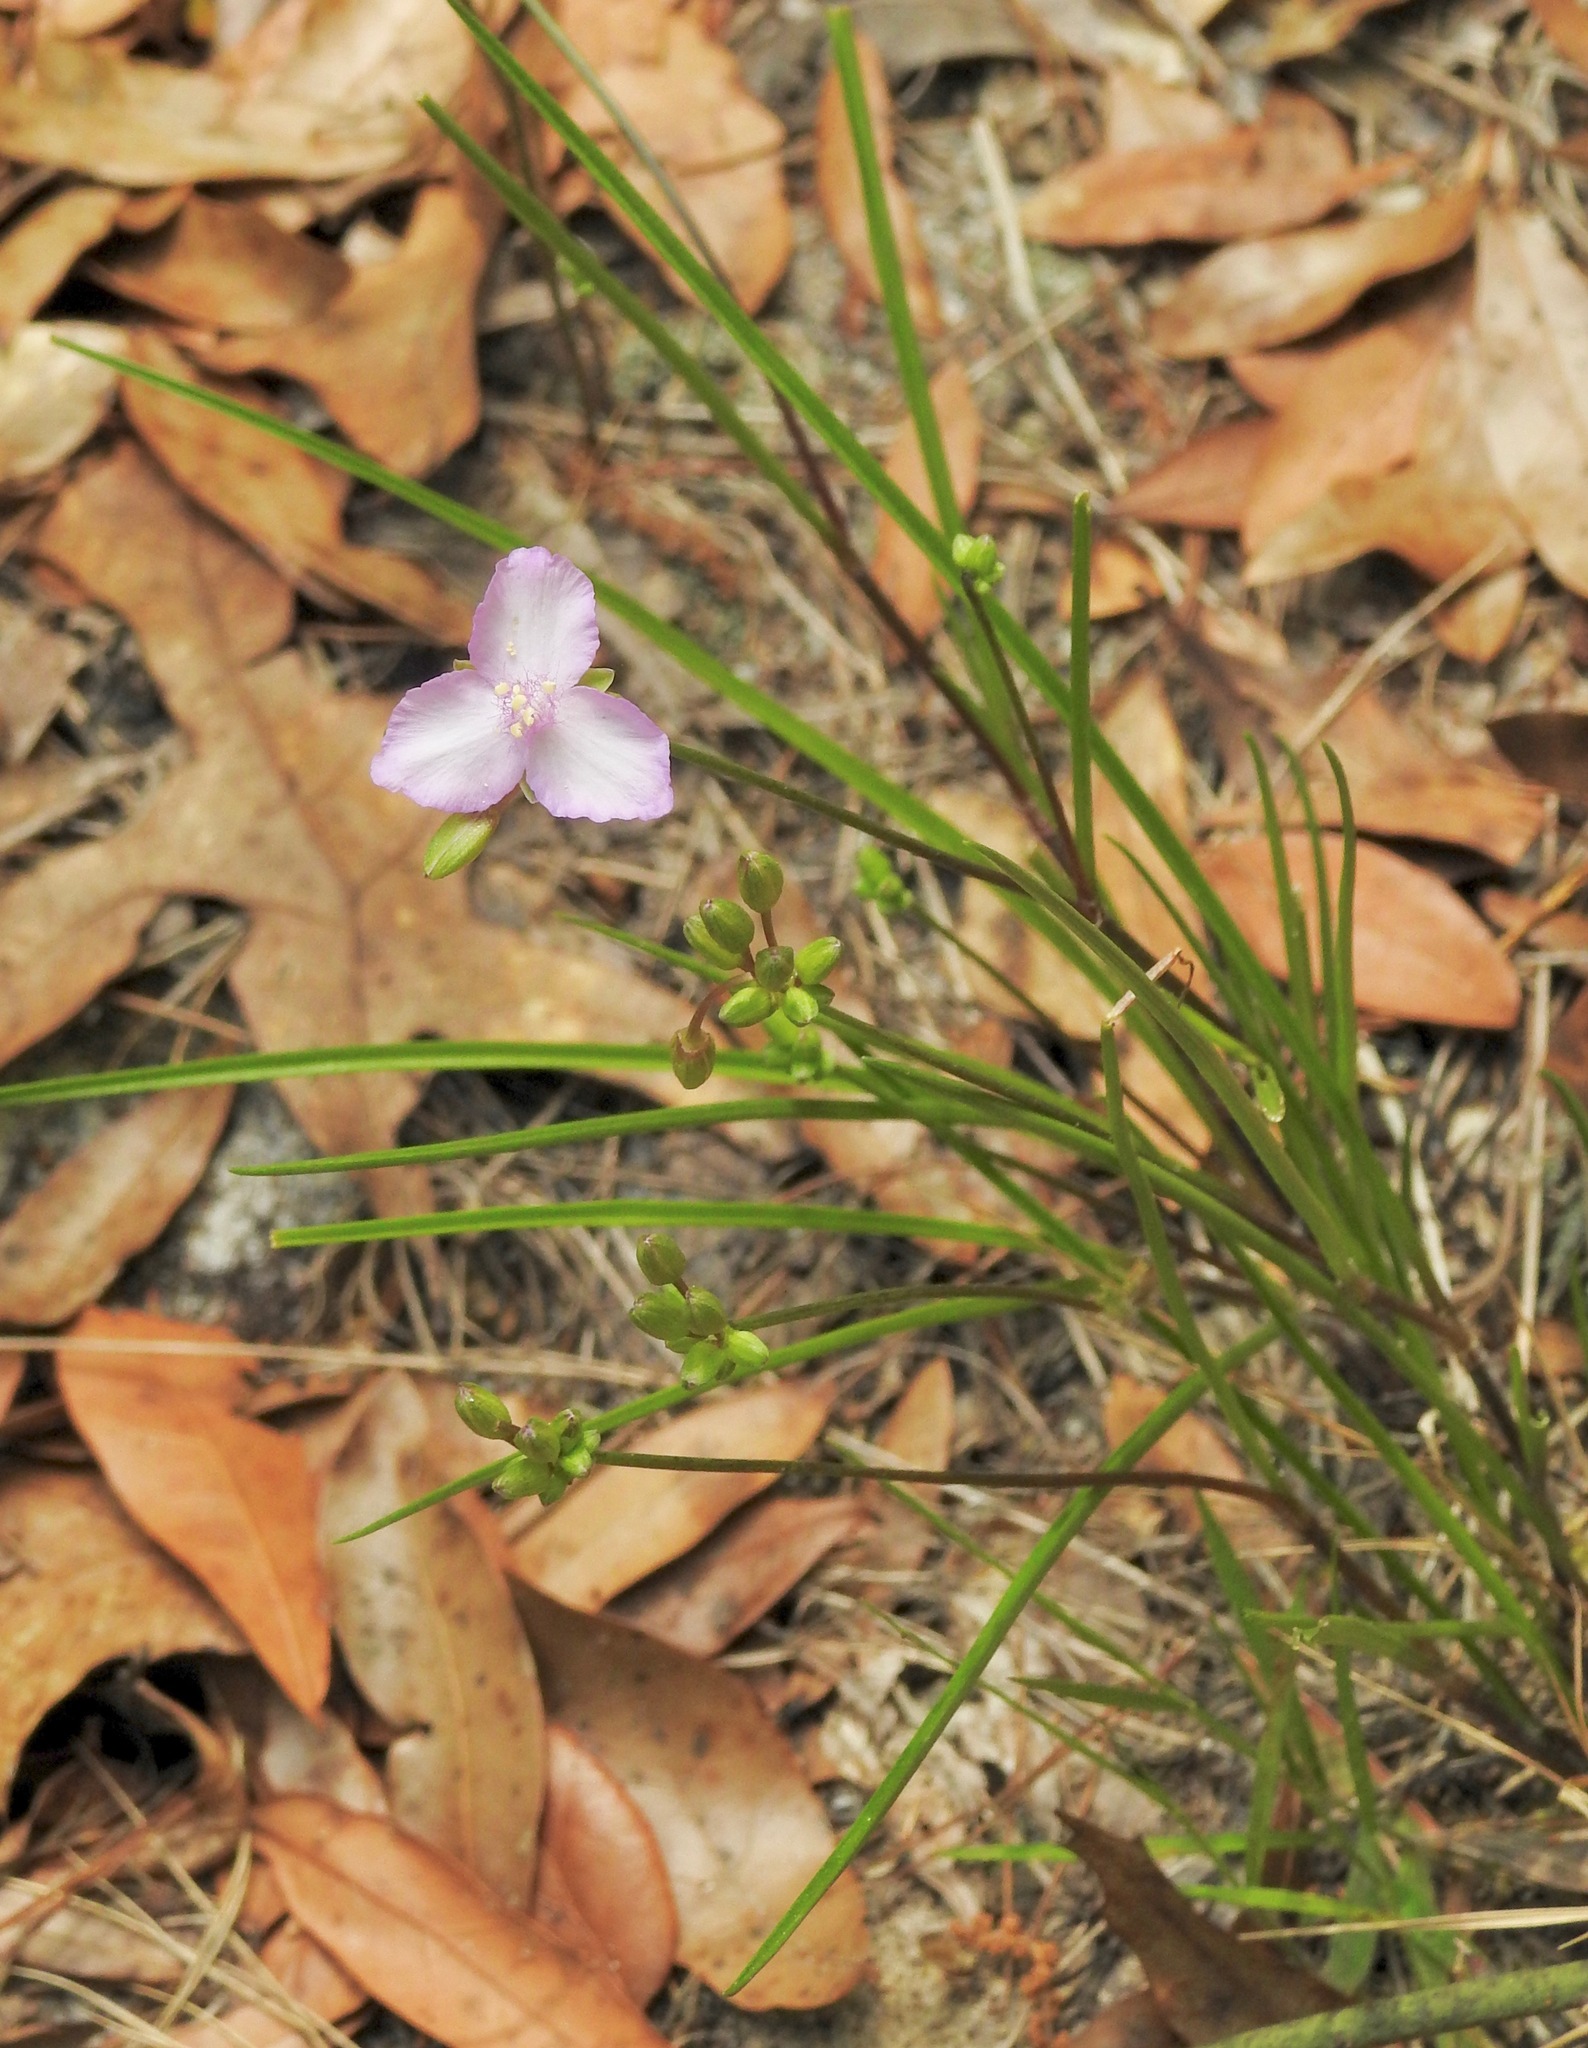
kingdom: Plantae
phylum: Tracheophyta
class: Liliopsida
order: Commelinales
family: Commelinaceae
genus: Callisia
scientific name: Callisia ornata
